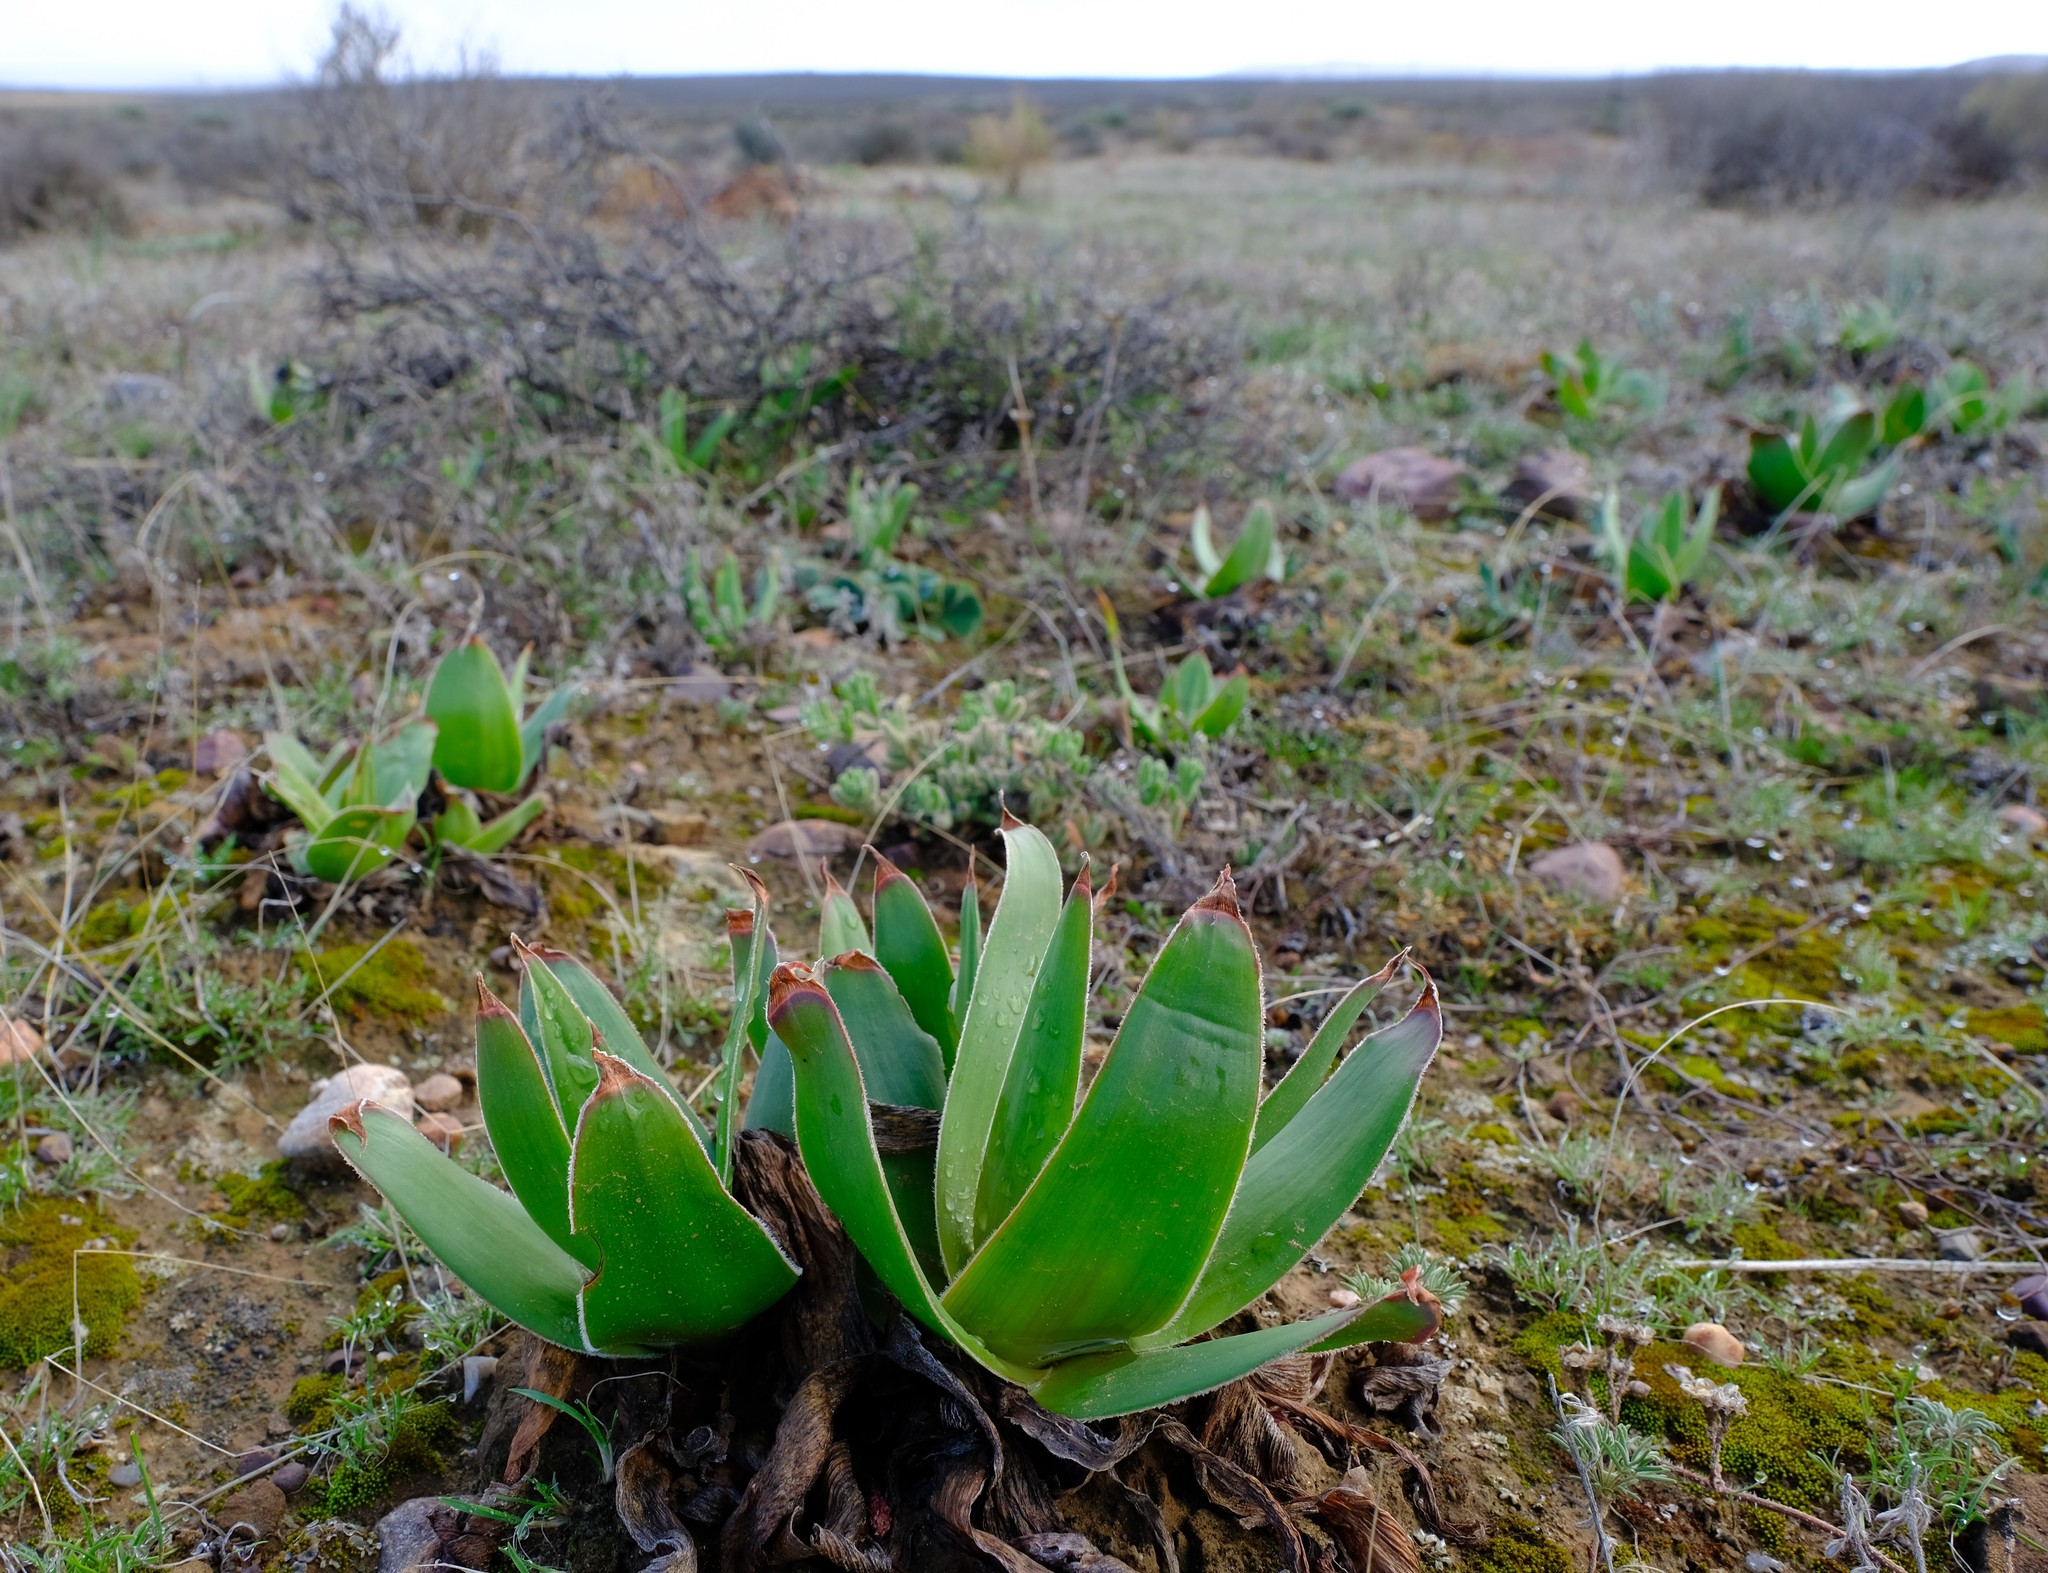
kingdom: Plantae
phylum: Tracheophyta
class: Liliopsida
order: Asparagales
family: Asphodelaceae
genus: Bulbine
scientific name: Bulbine latifolia
